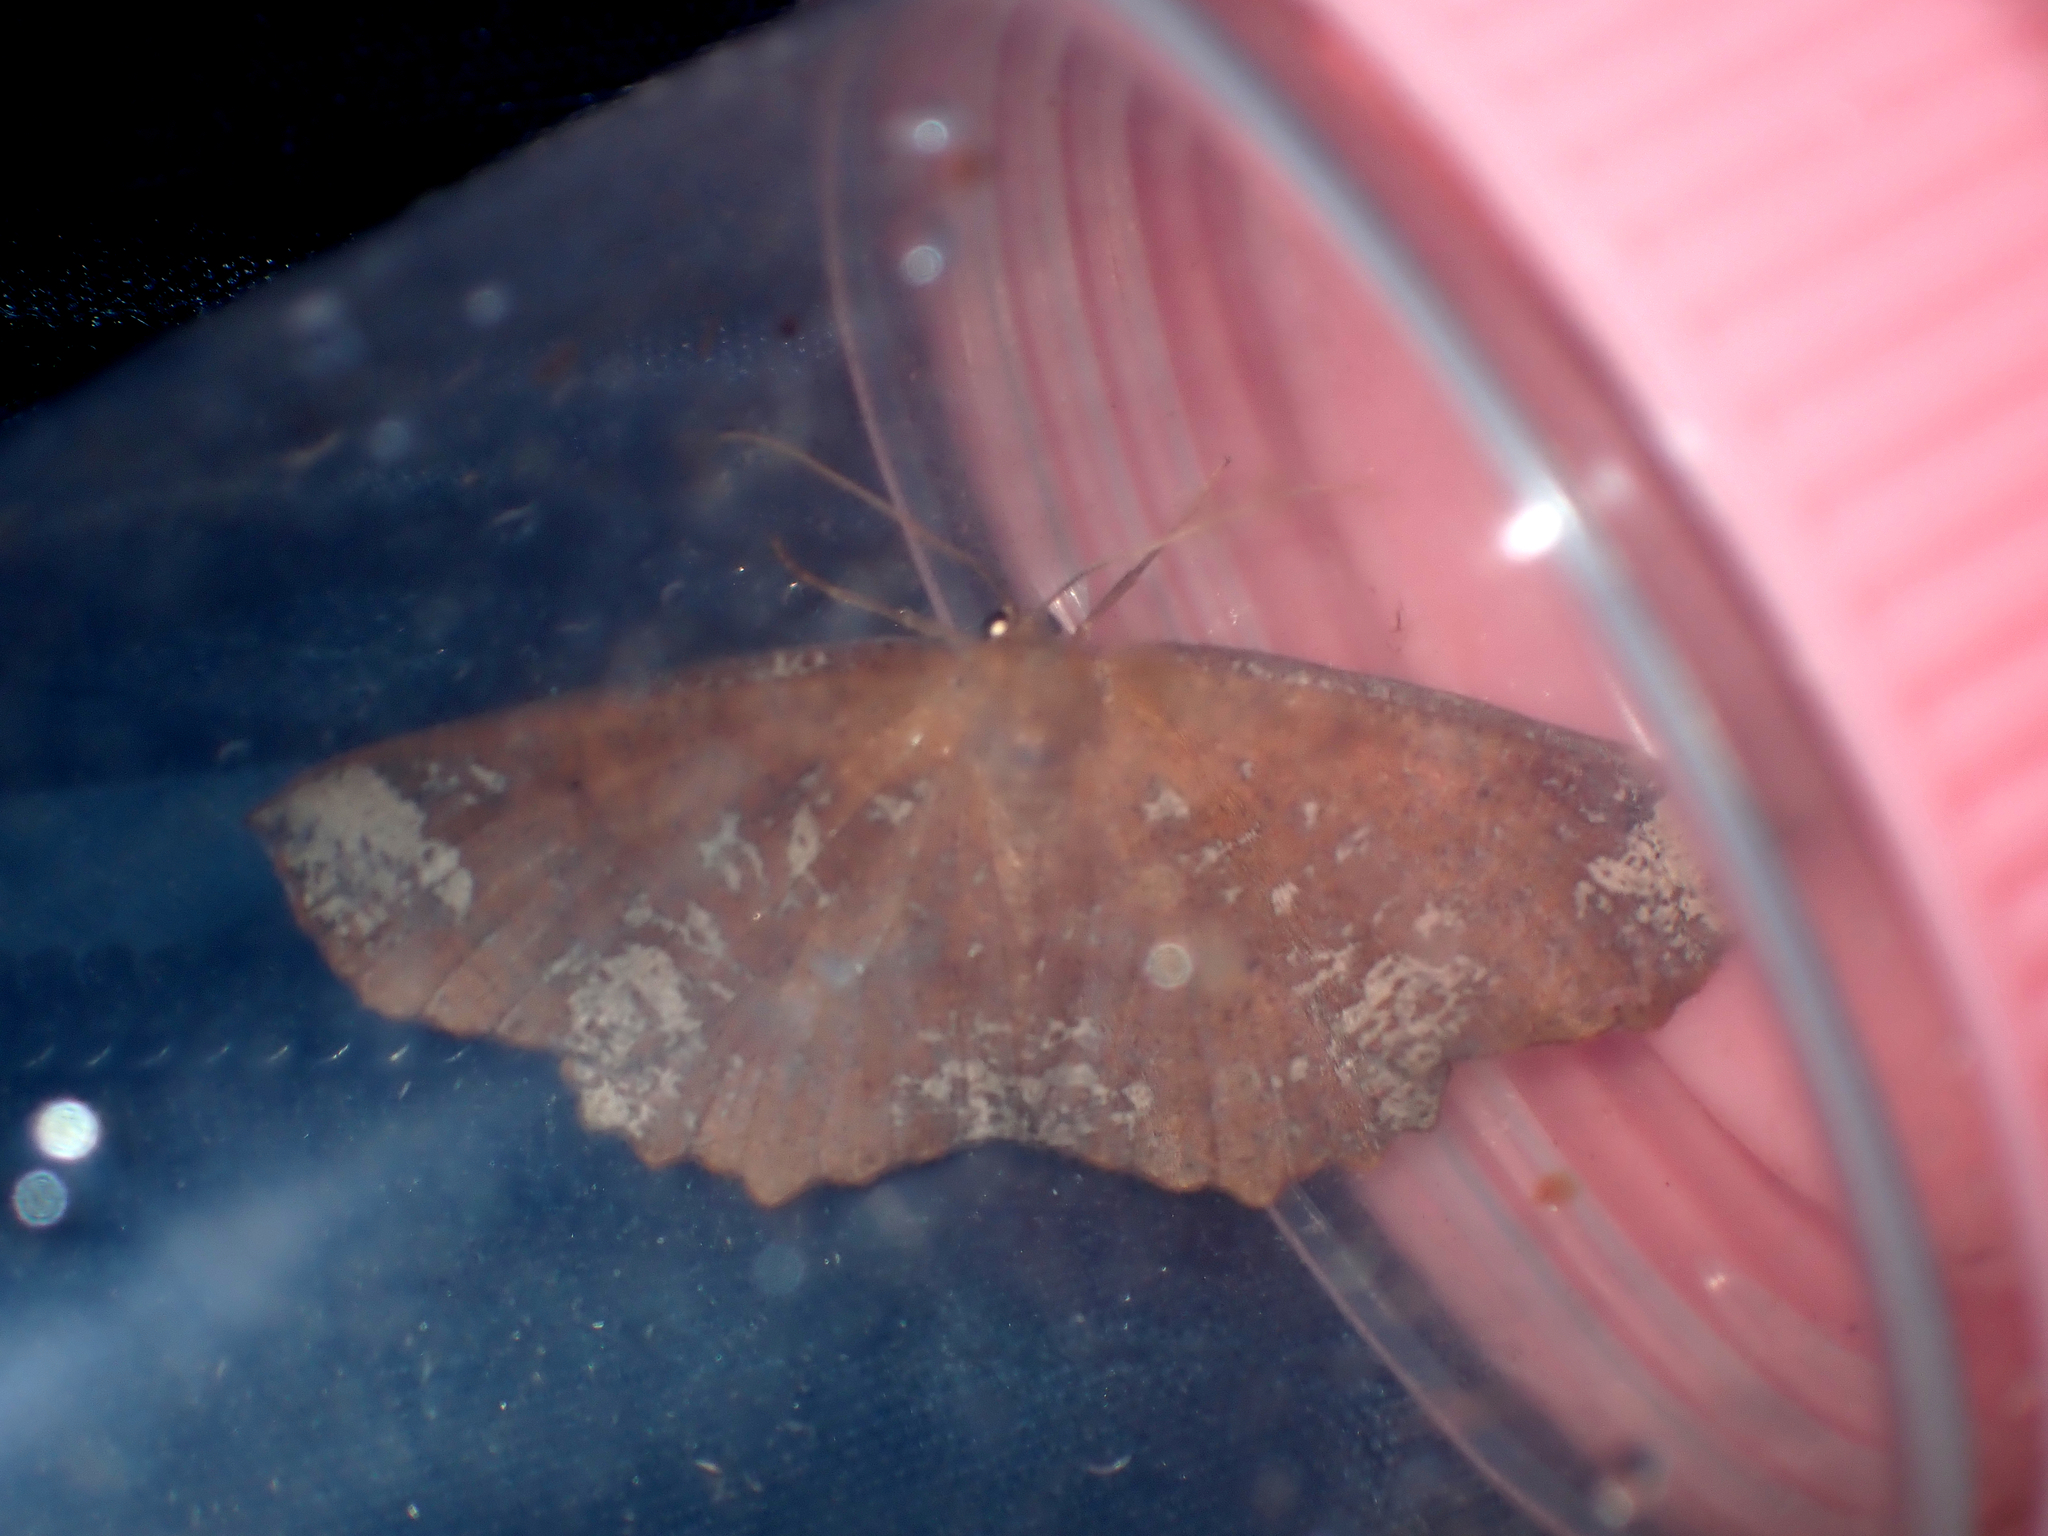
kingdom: Animalia
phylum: Arthropoda
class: Insecta
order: Lepidoptera
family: Geometridae
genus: Xyridacma
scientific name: Xyridacma ustaria
